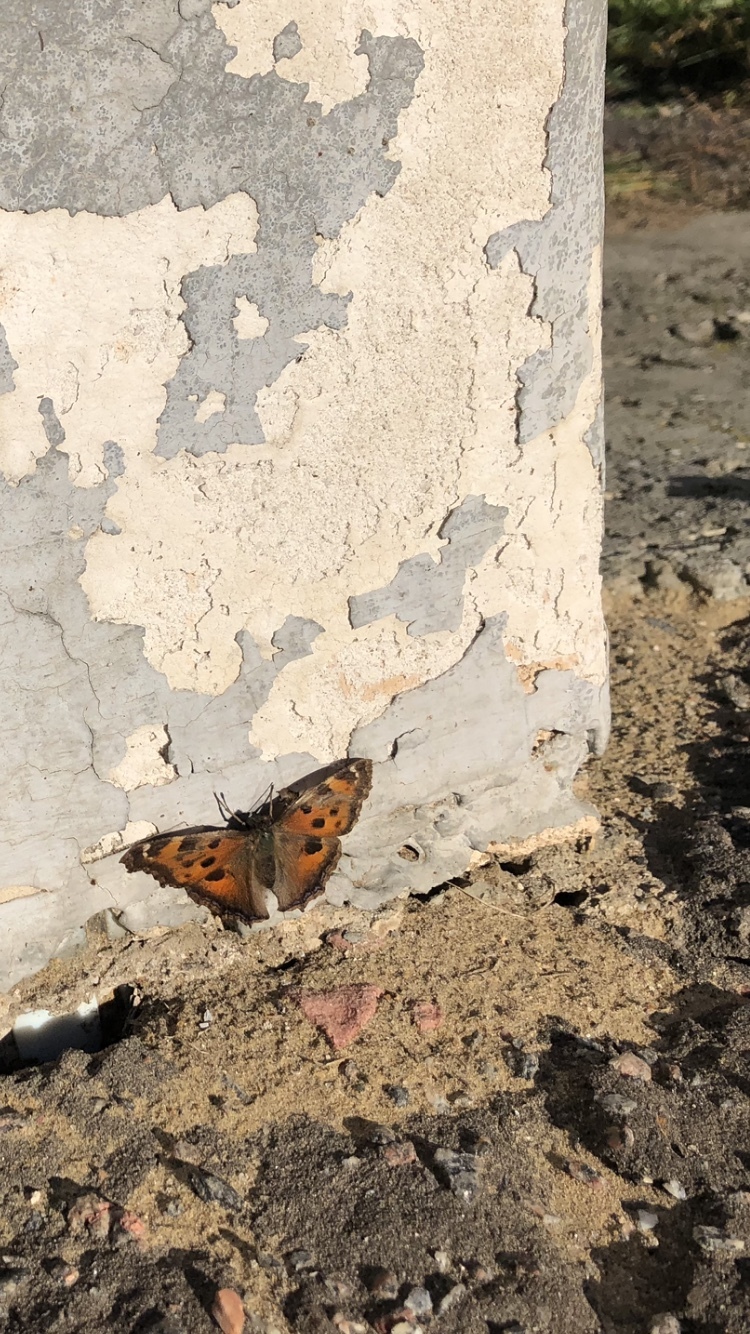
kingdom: Animalia
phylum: Arthropoda
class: Insecta
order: Lepidoptera
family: Nymphalidae
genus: Nymphalis
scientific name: Nymphalis xanthomelas
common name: Scarce tortoiseshell
